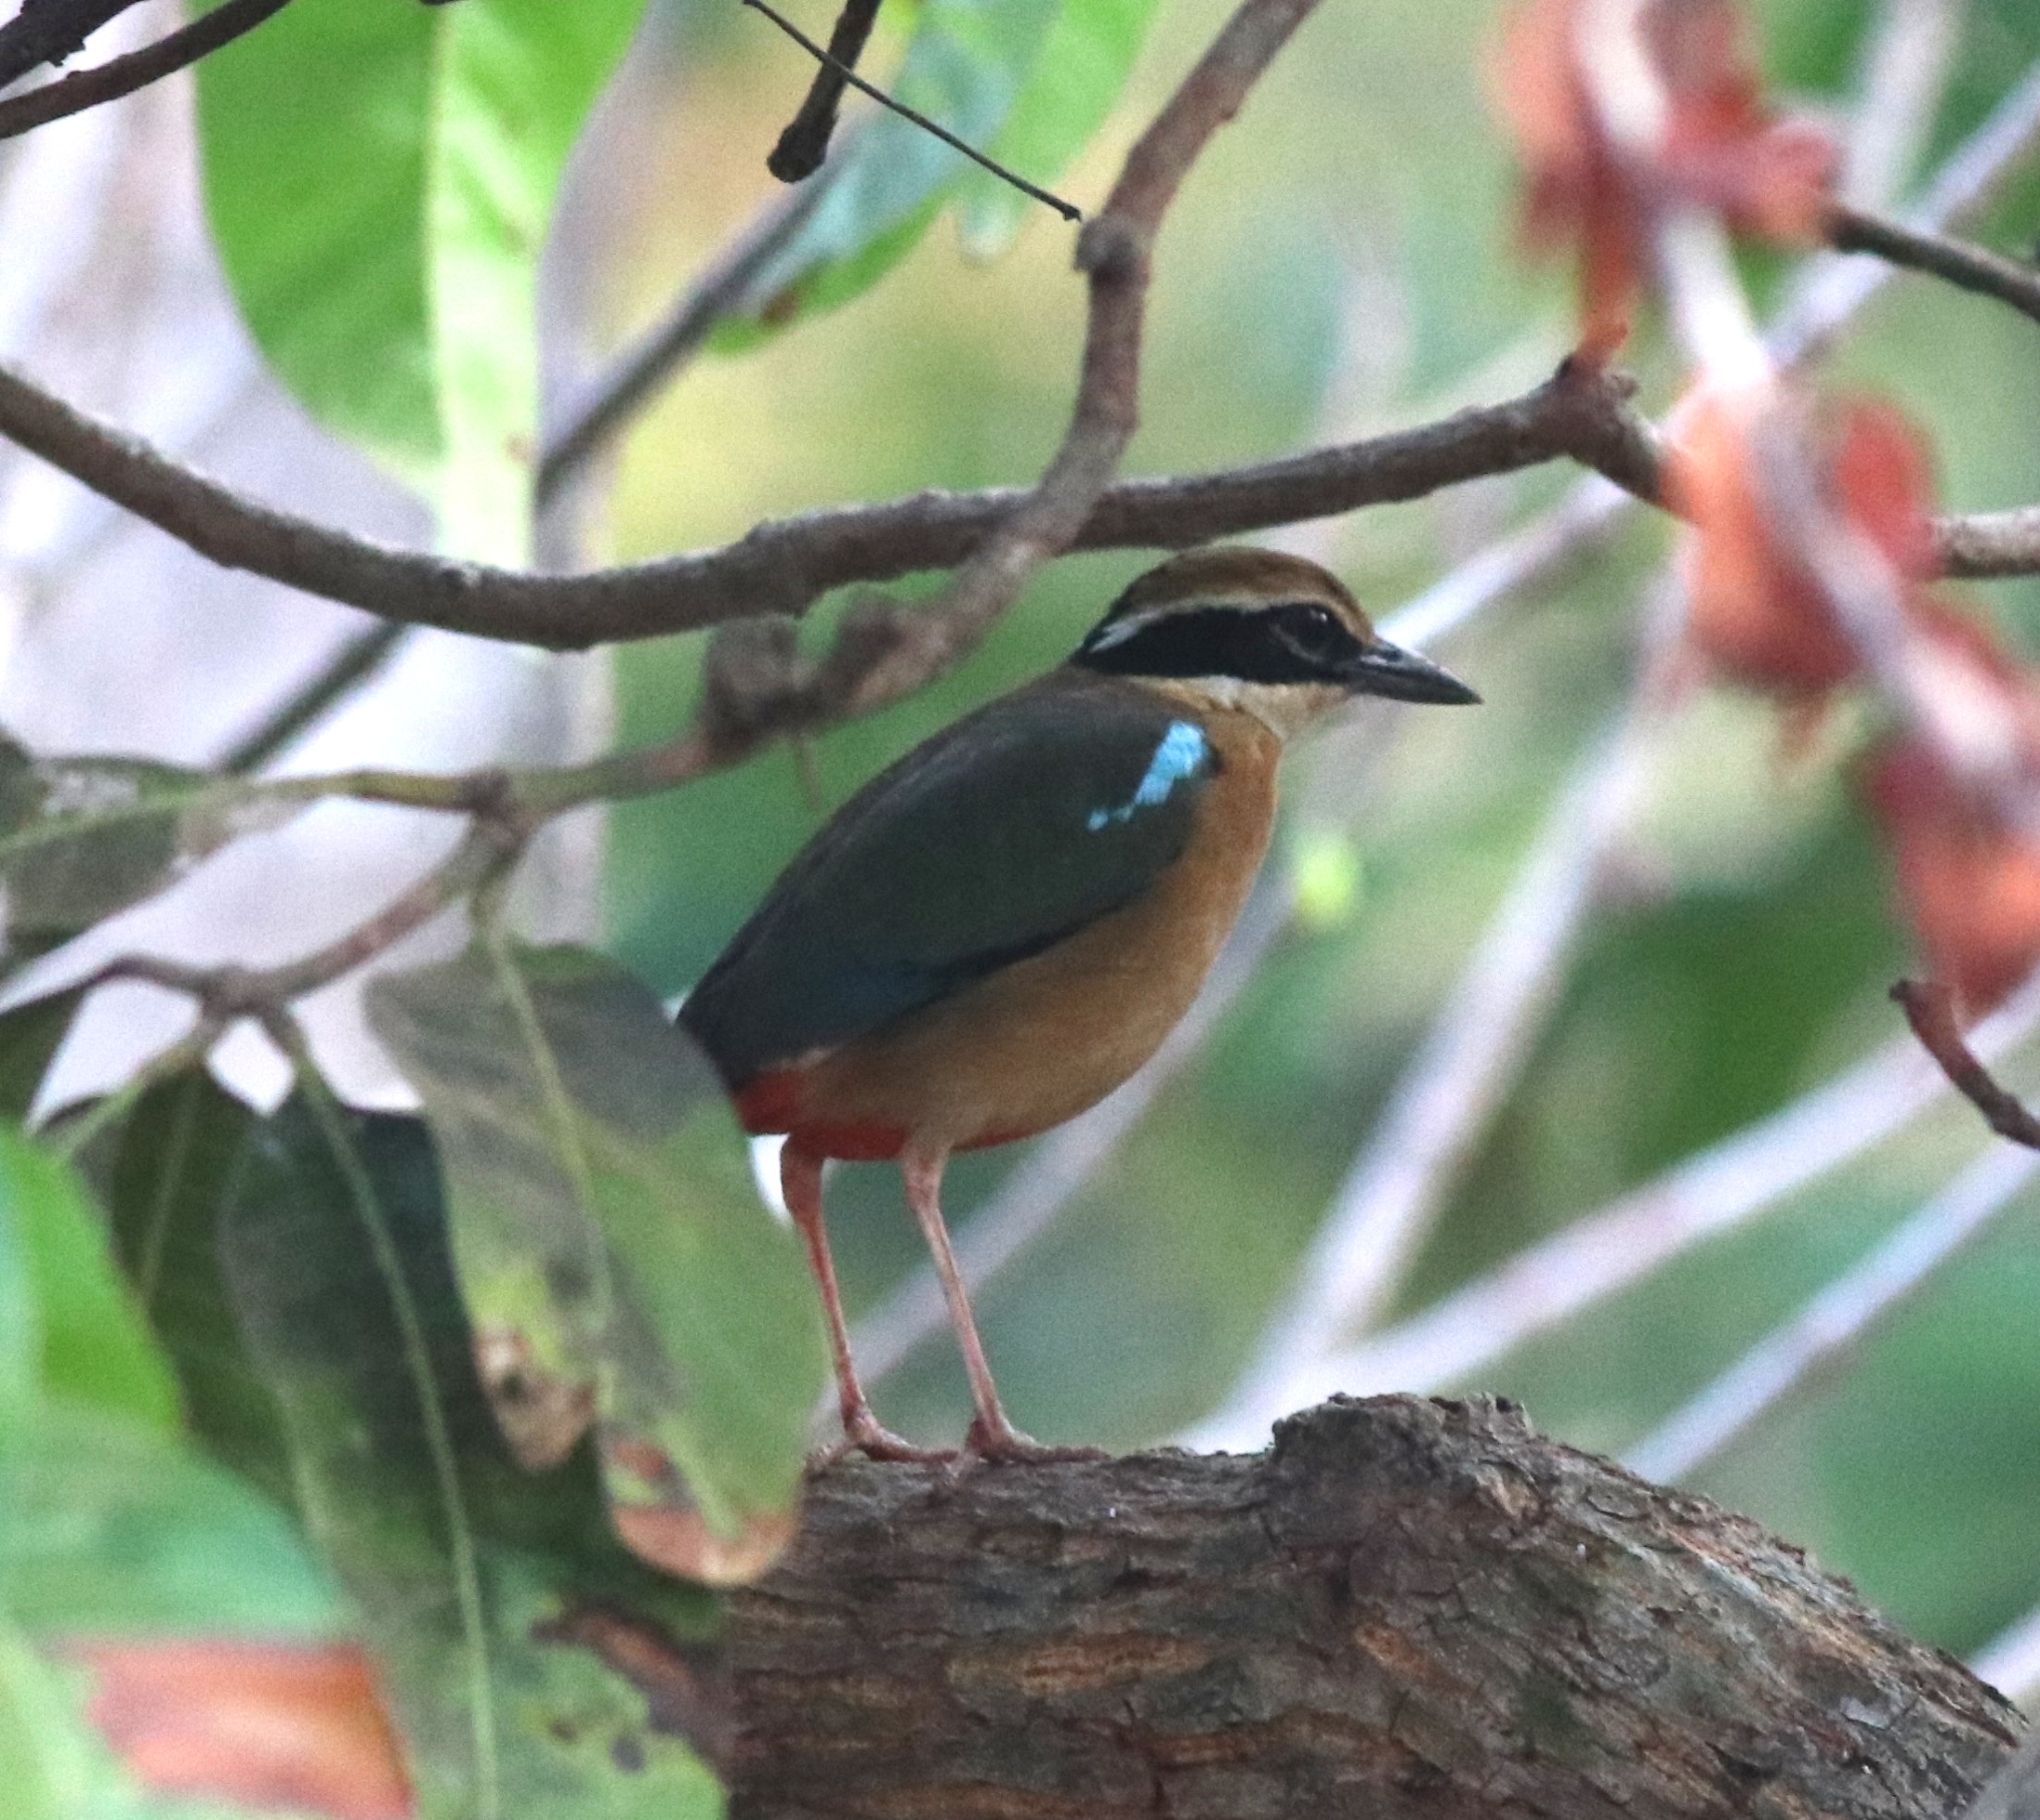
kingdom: Animalia
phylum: Chordata
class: Aves
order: Passeriformes
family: Pittidae
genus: Pitta
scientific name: Pitta brachyura
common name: Indian pitta
